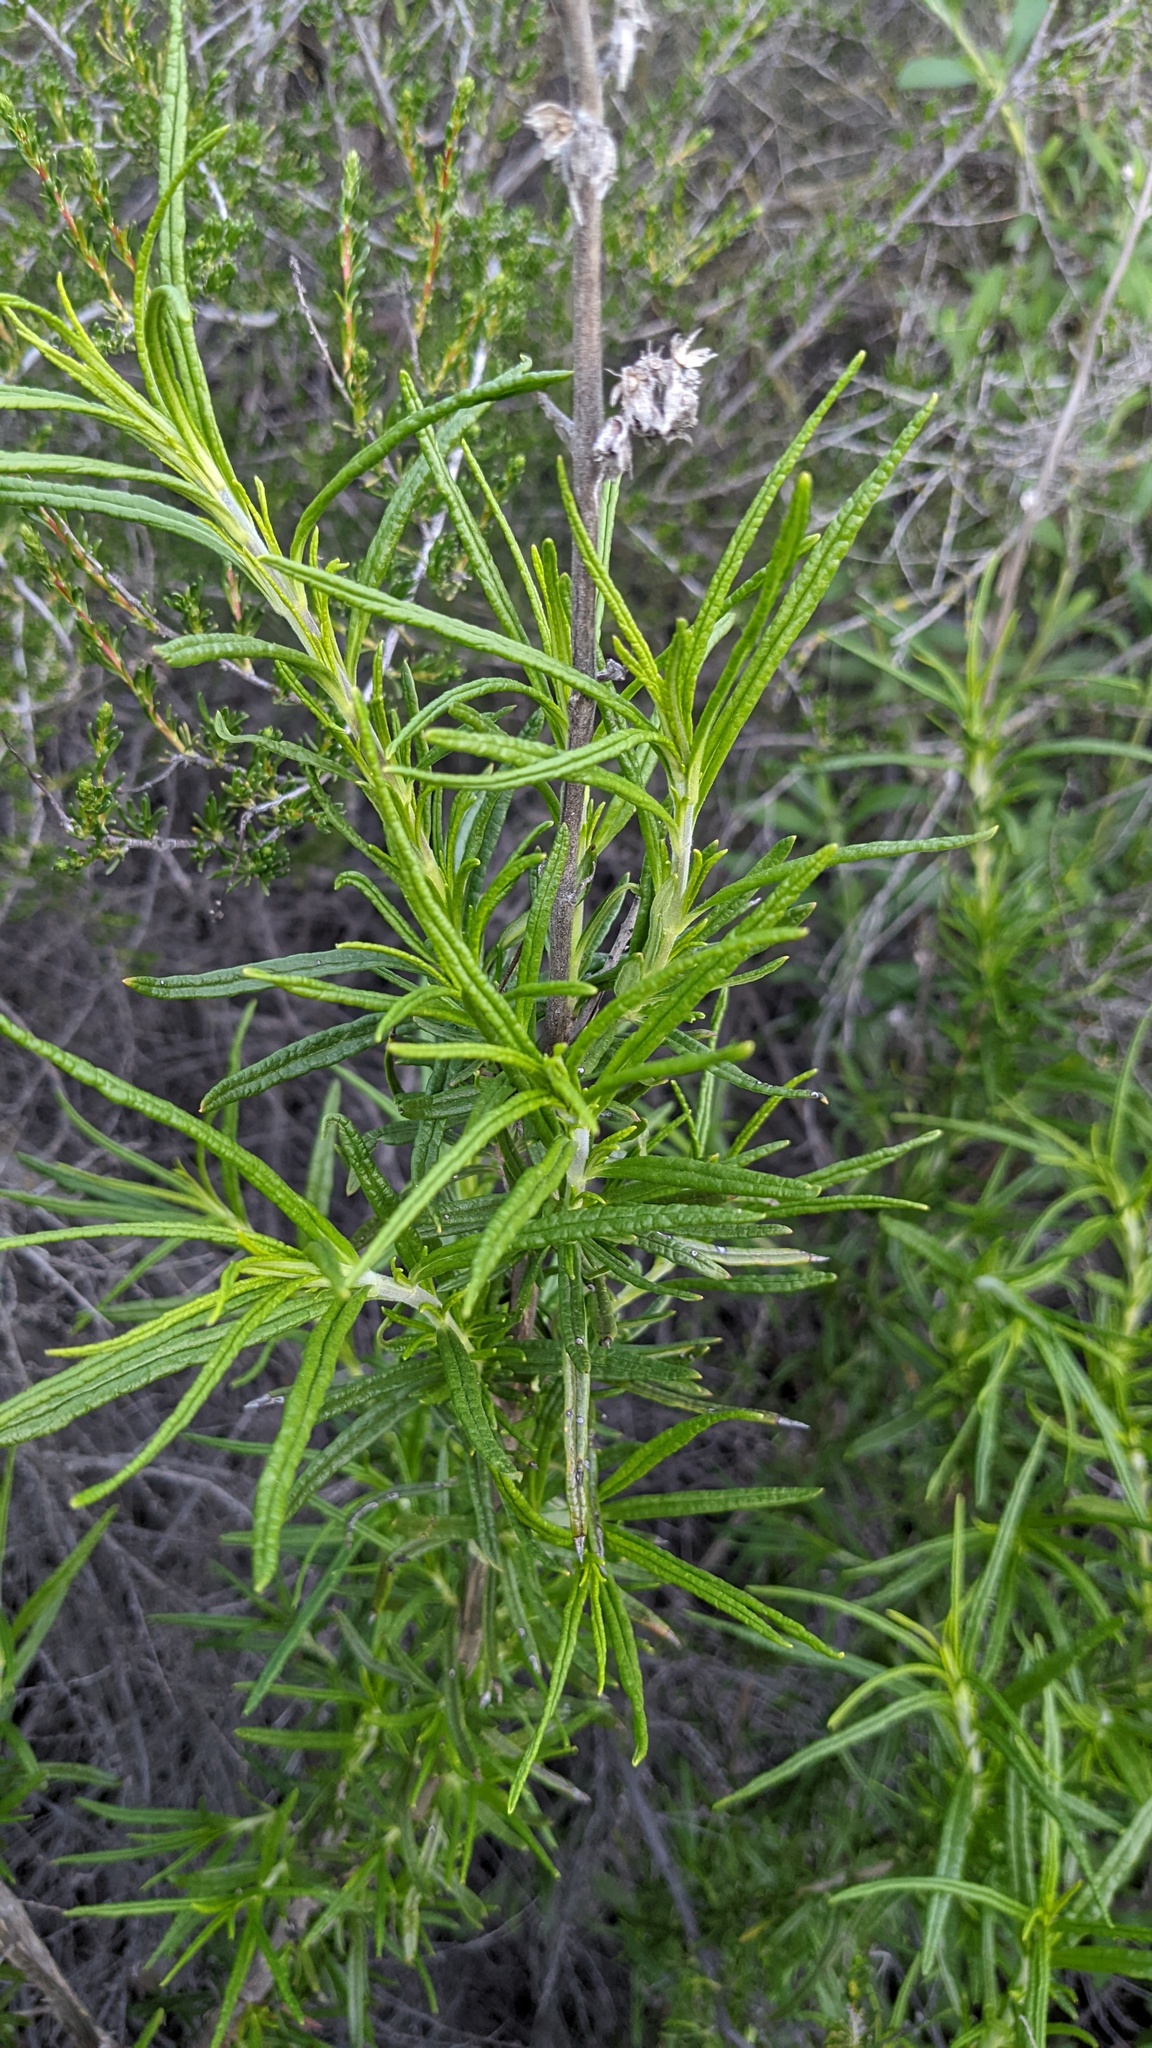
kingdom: Plantae
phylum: Tracheophyta
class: Magnoliopsida
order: Lamiales
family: Lamiaceae
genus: Trichostema
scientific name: Trichostema lanatum
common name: Woolly bluecurls
